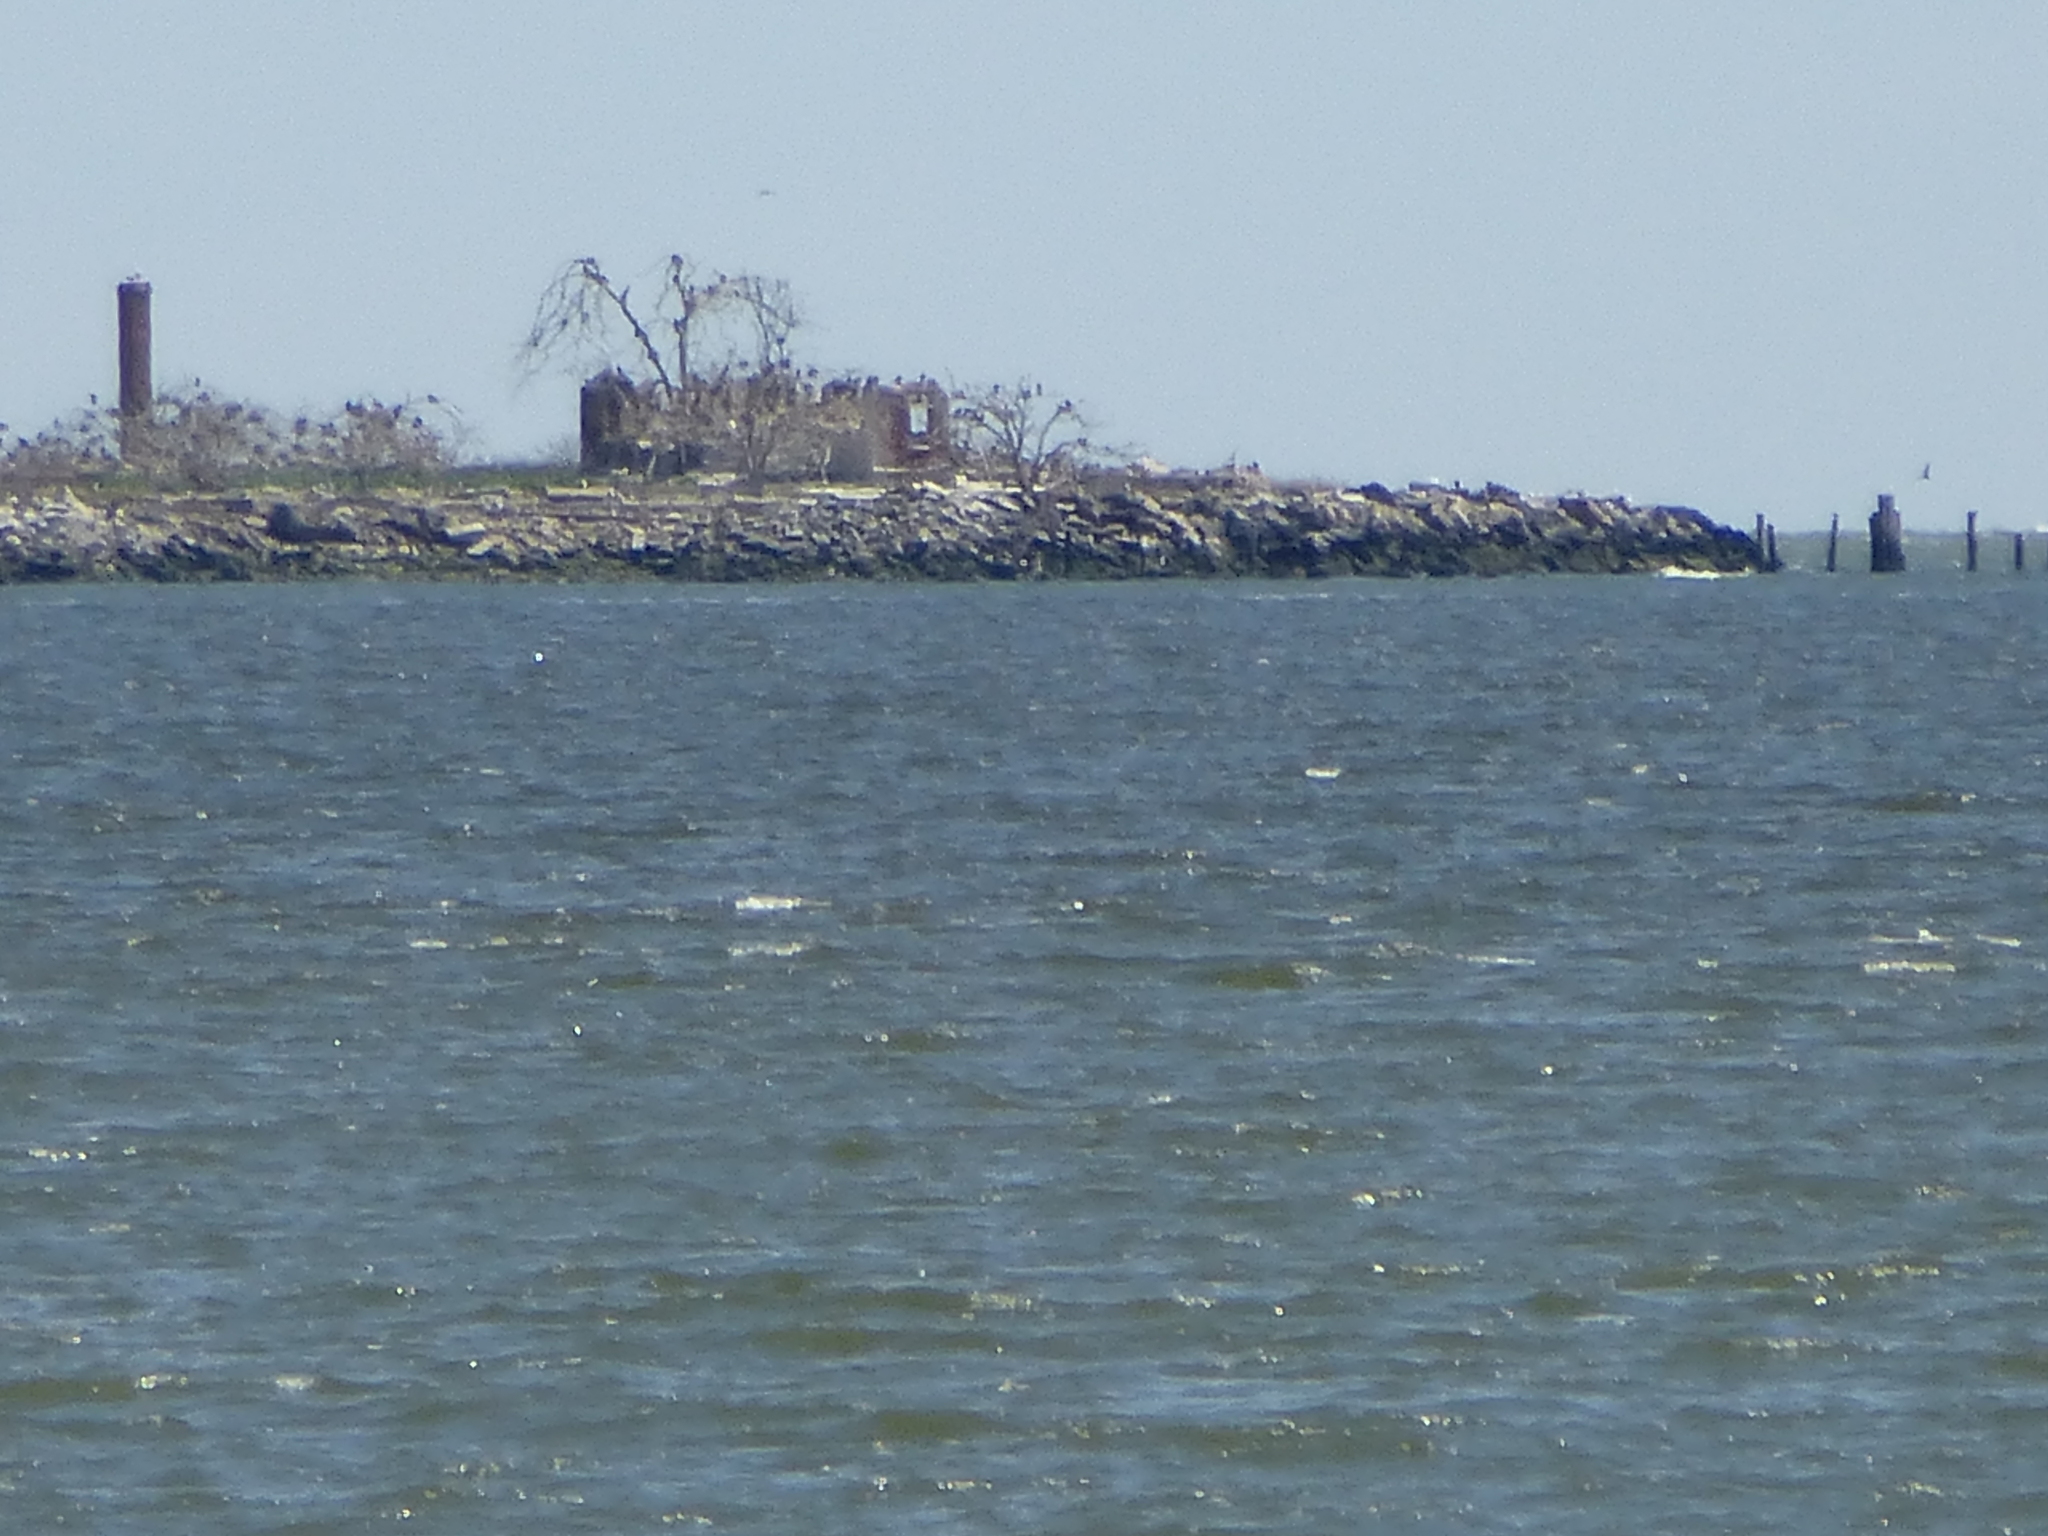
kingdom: Animalia
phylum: Chordata
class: Aves
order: Suliformes
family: Phalacrocoracidae
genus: Phalacrocorax
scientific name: Phalacrocorax auritus
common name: Double-crested cormorant
